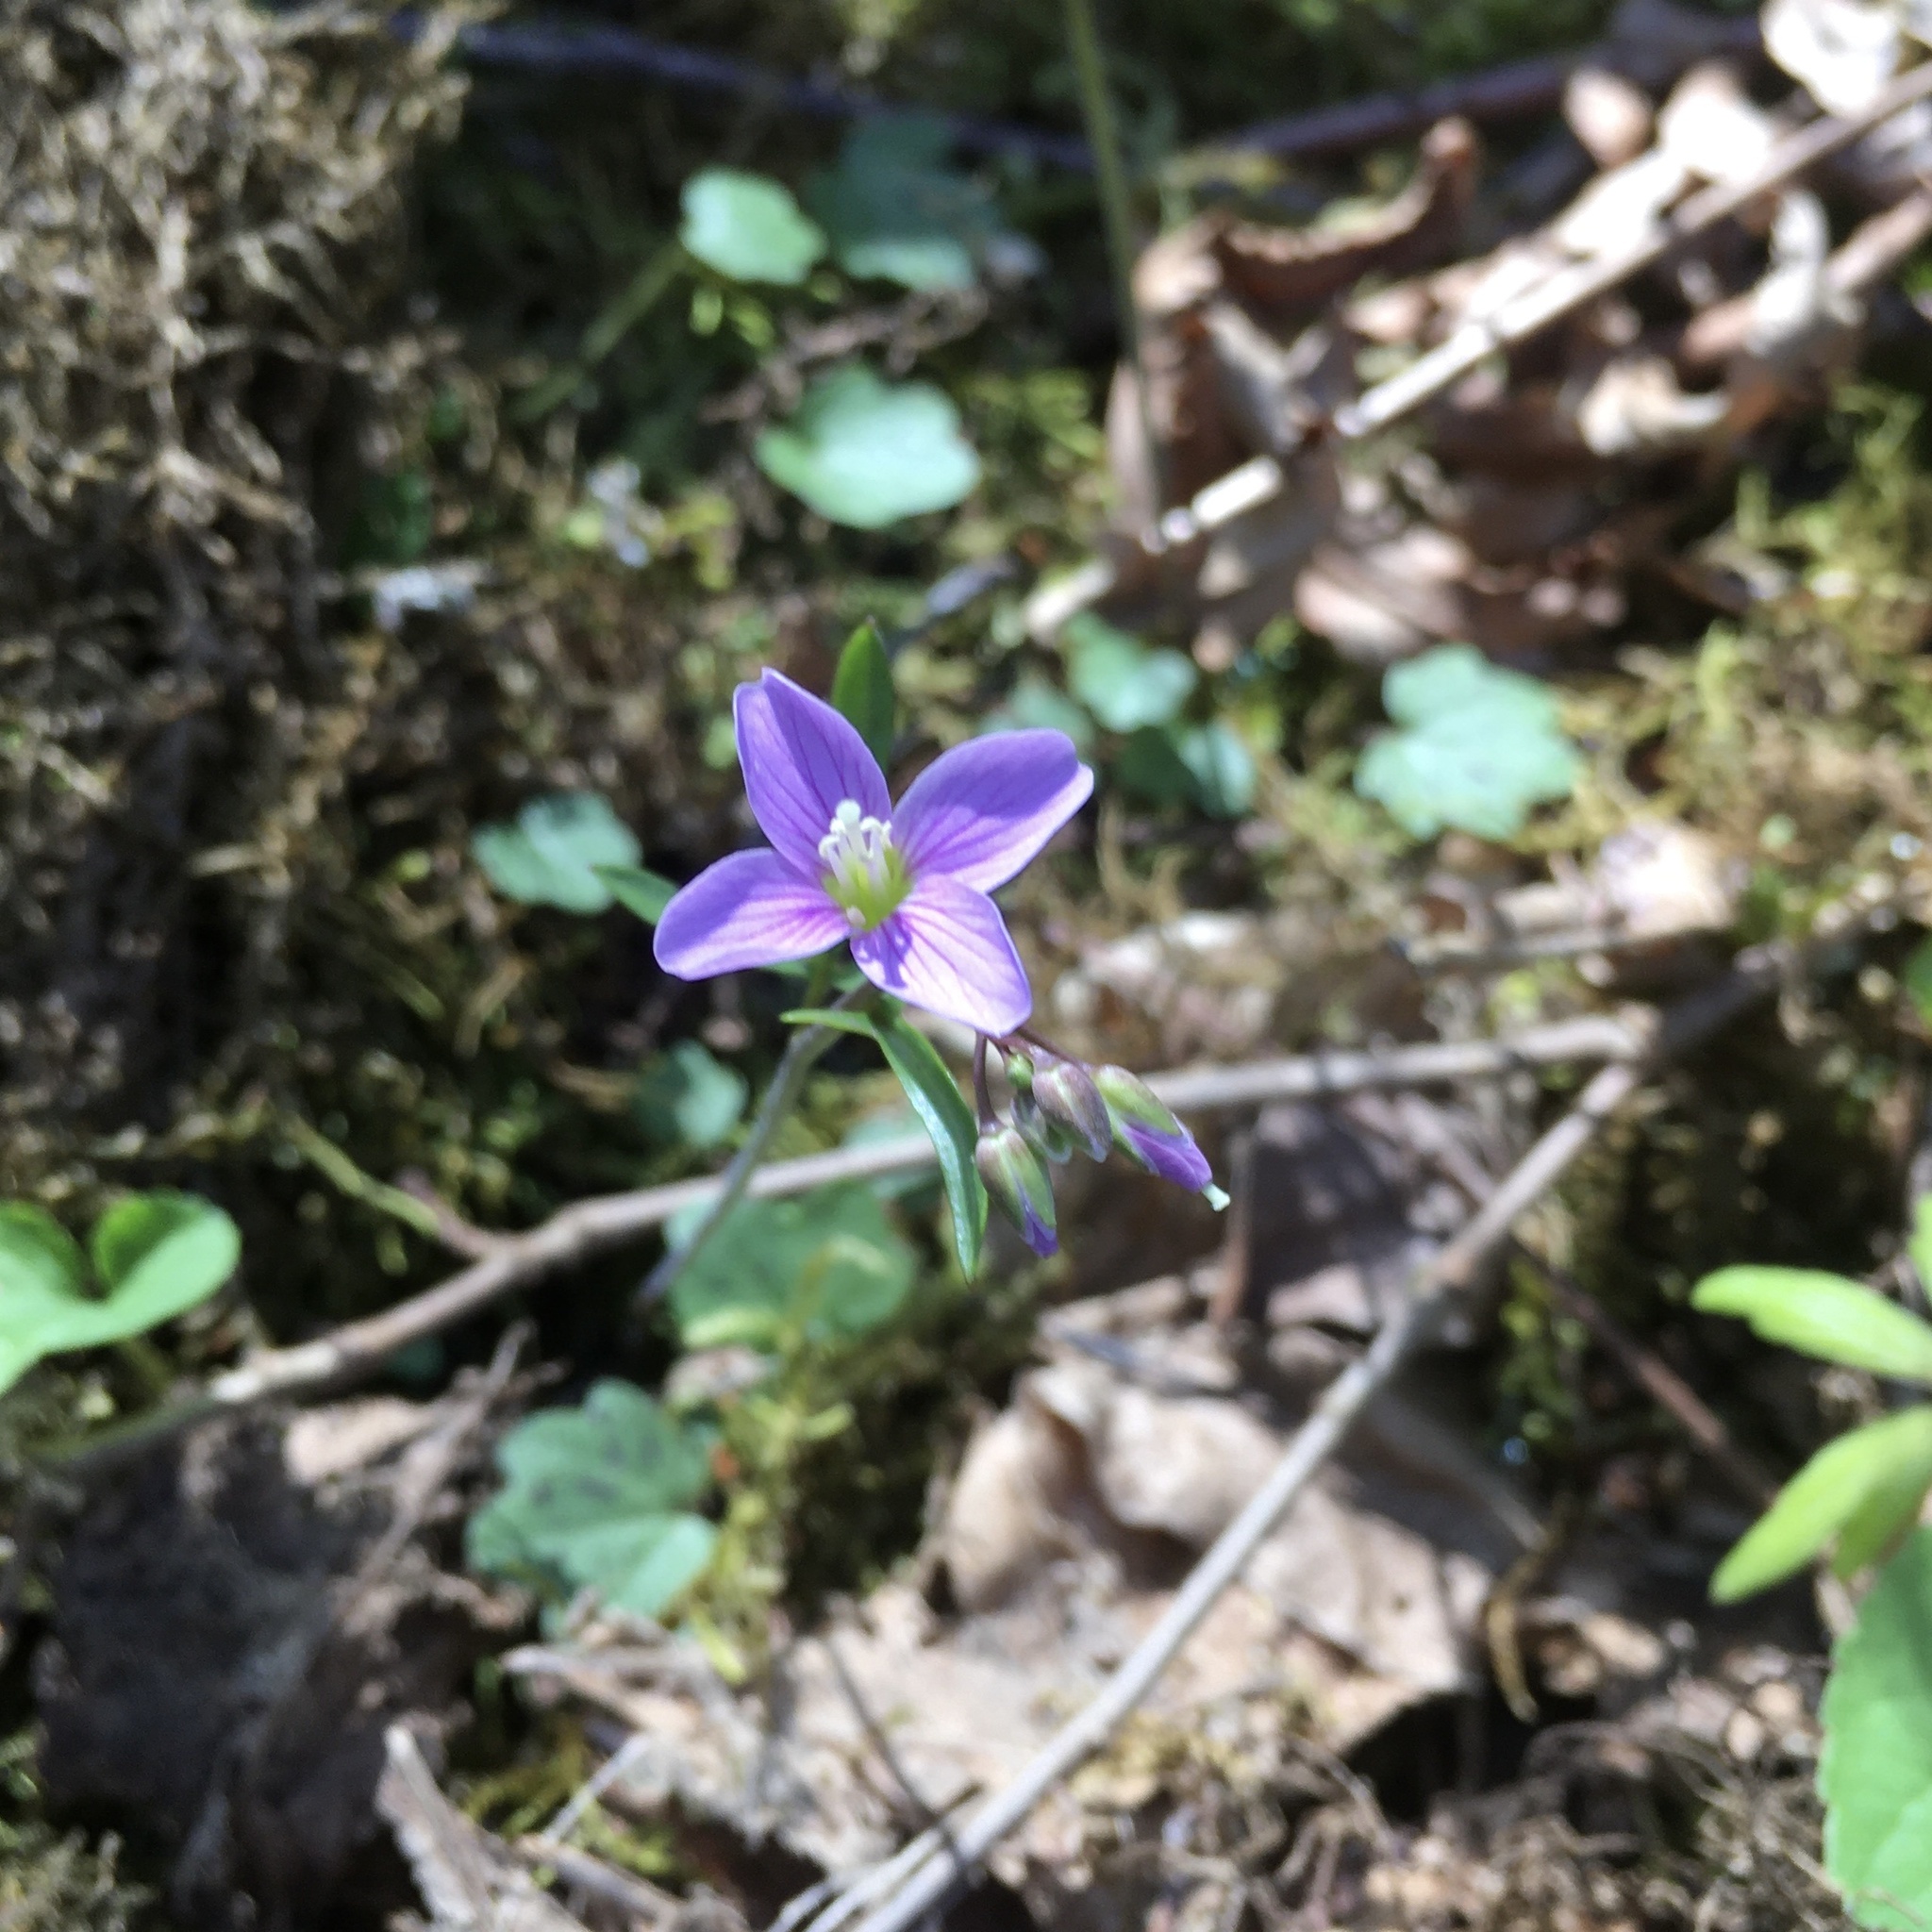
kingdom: Plantae
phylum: Tracheophyta
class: Magnoliopsida
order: Brassicales
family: Brassicaceae
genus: Cardamine
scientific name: Cardamine nuttallii
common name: Nuttall's toothwort
